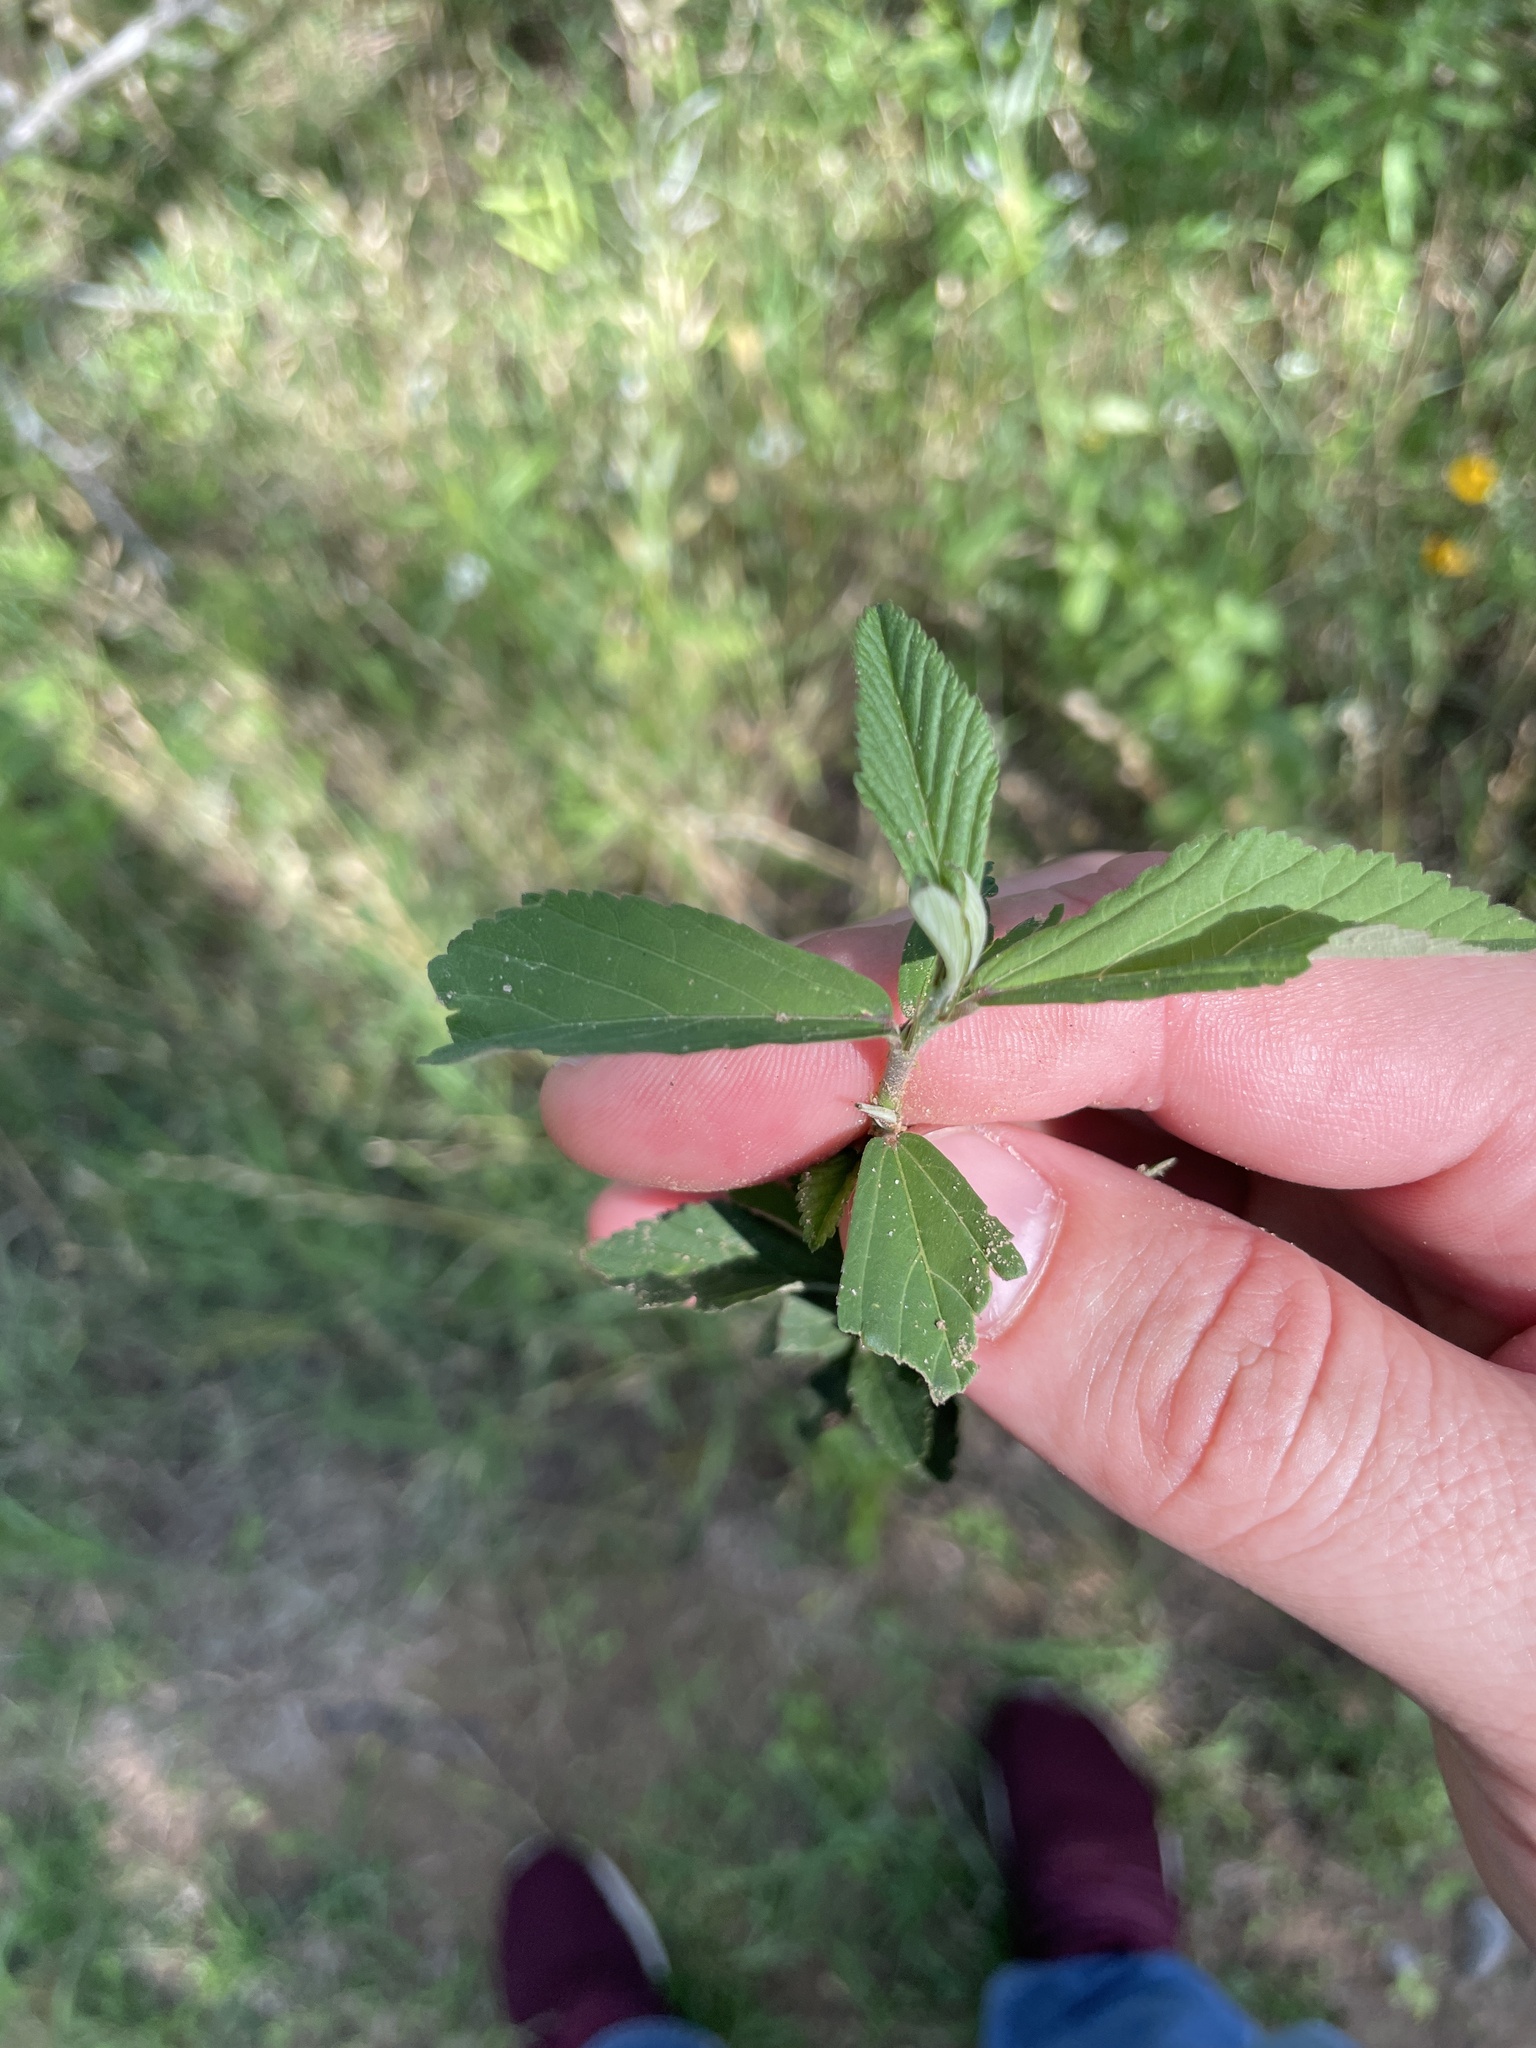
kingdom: Plantae
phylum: Tracheophyta
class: Magnoliopsida
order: Malvales
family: Malvaceae
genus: Sida
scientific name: Sida rhombifolia
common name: Queensland-hemp
